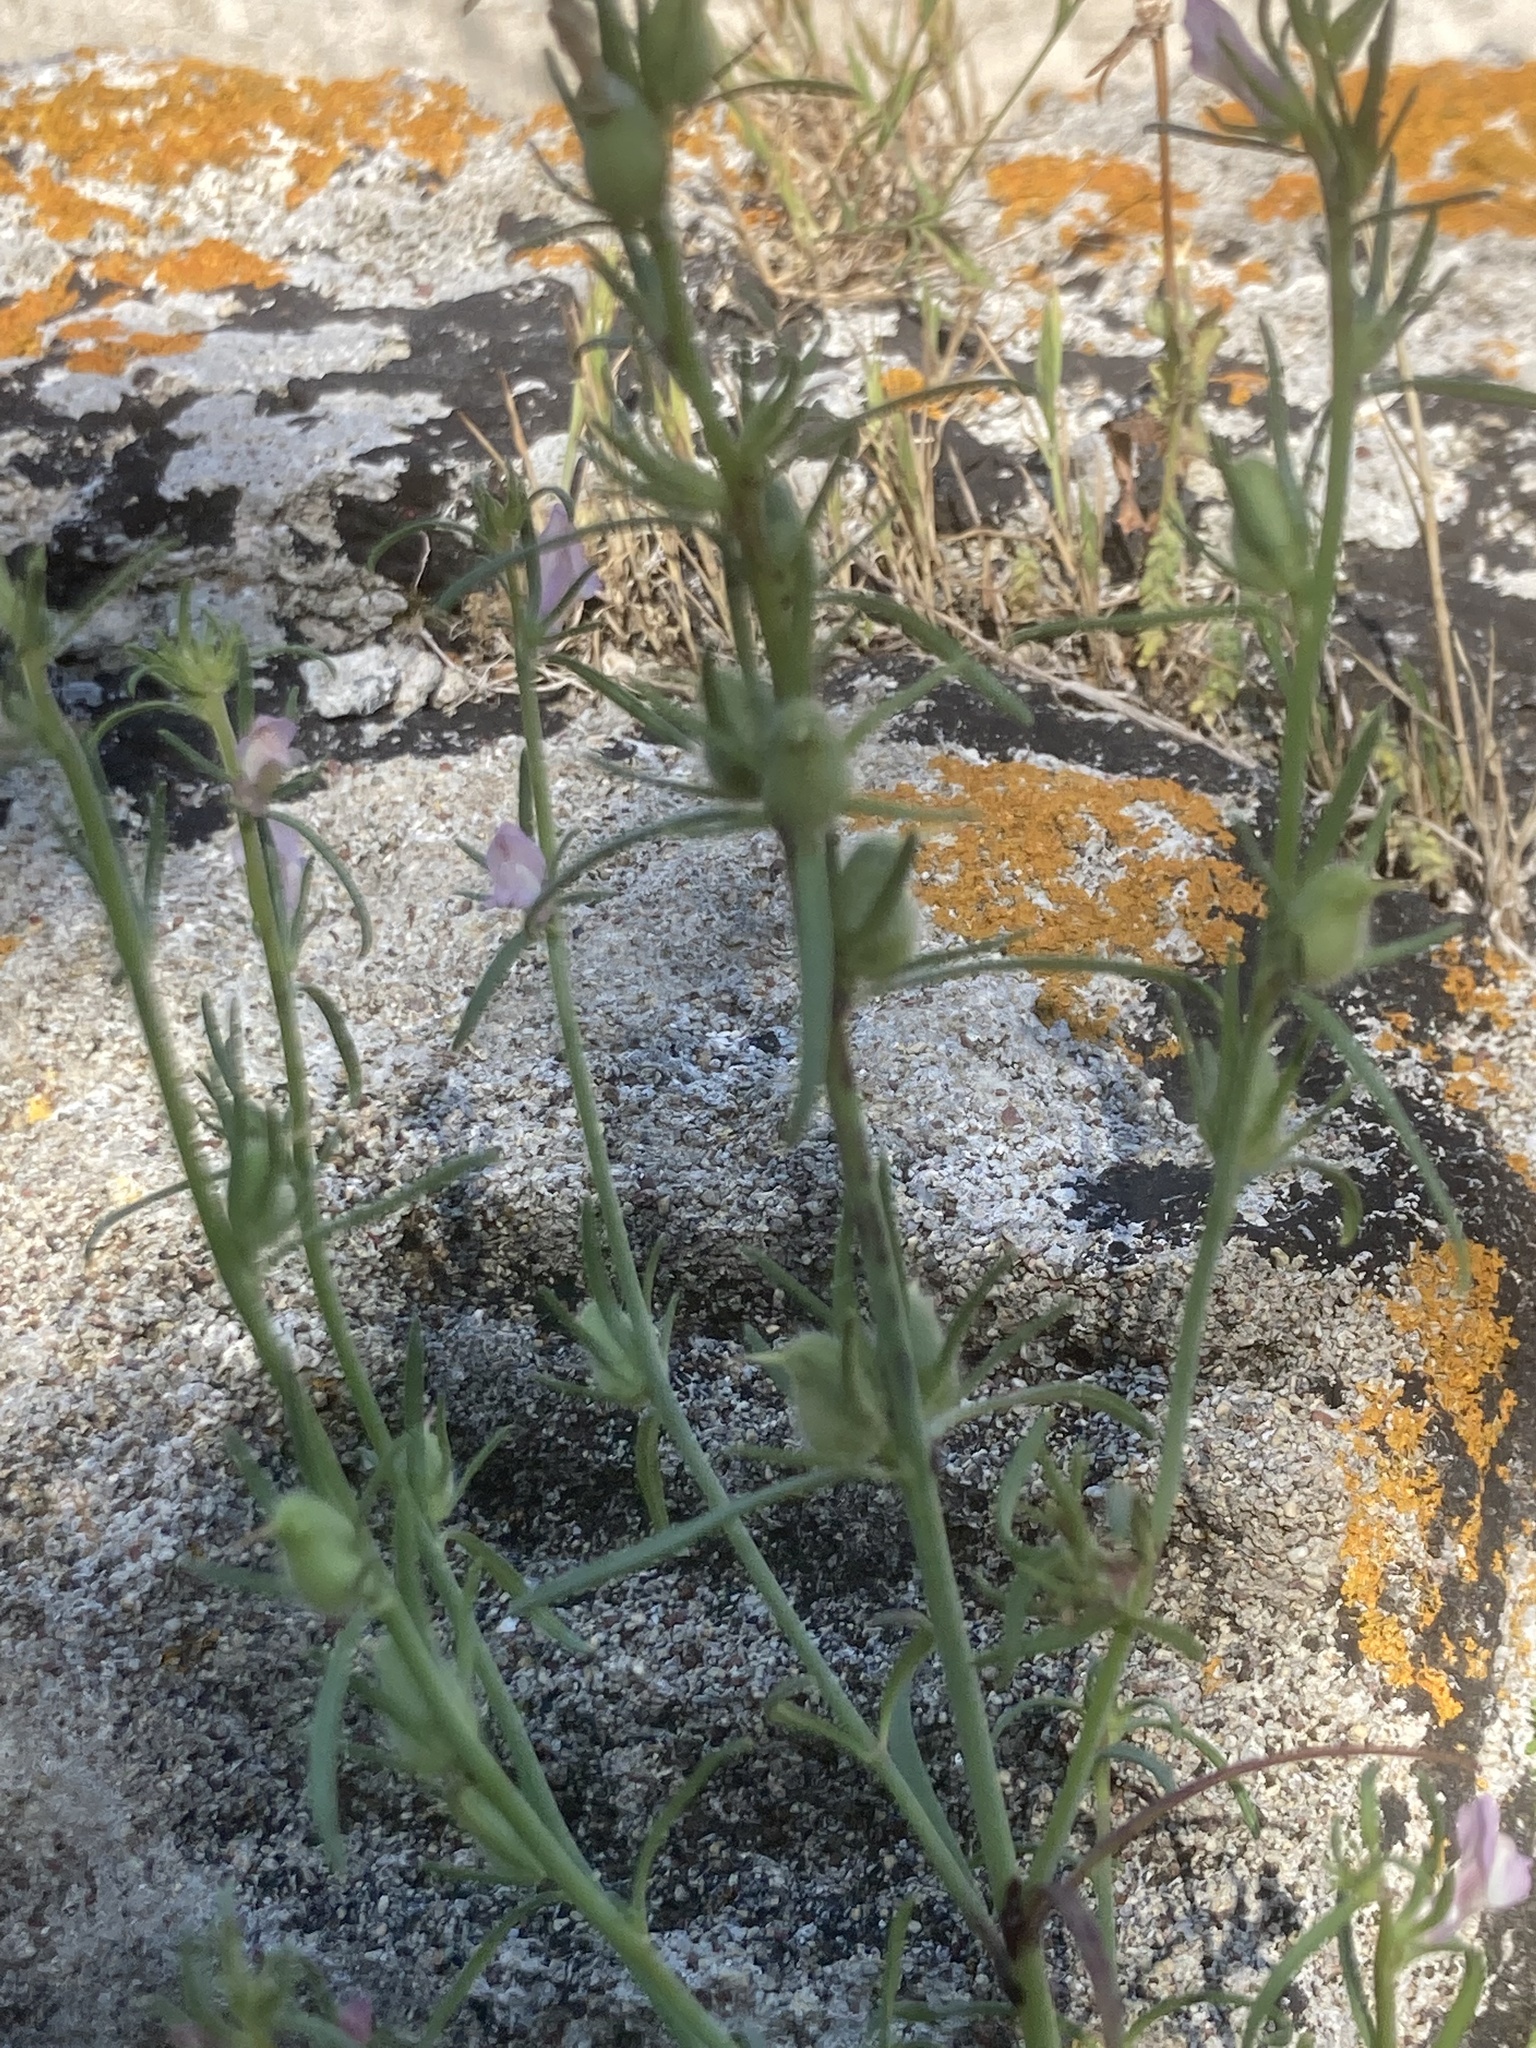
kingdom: Plantae
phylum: Tracheophyta
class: Magnoliopsida
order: Lamiales
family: Plantaginaceae
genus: Misopates
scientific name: Misopates orontium
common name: Weasel's-snout
